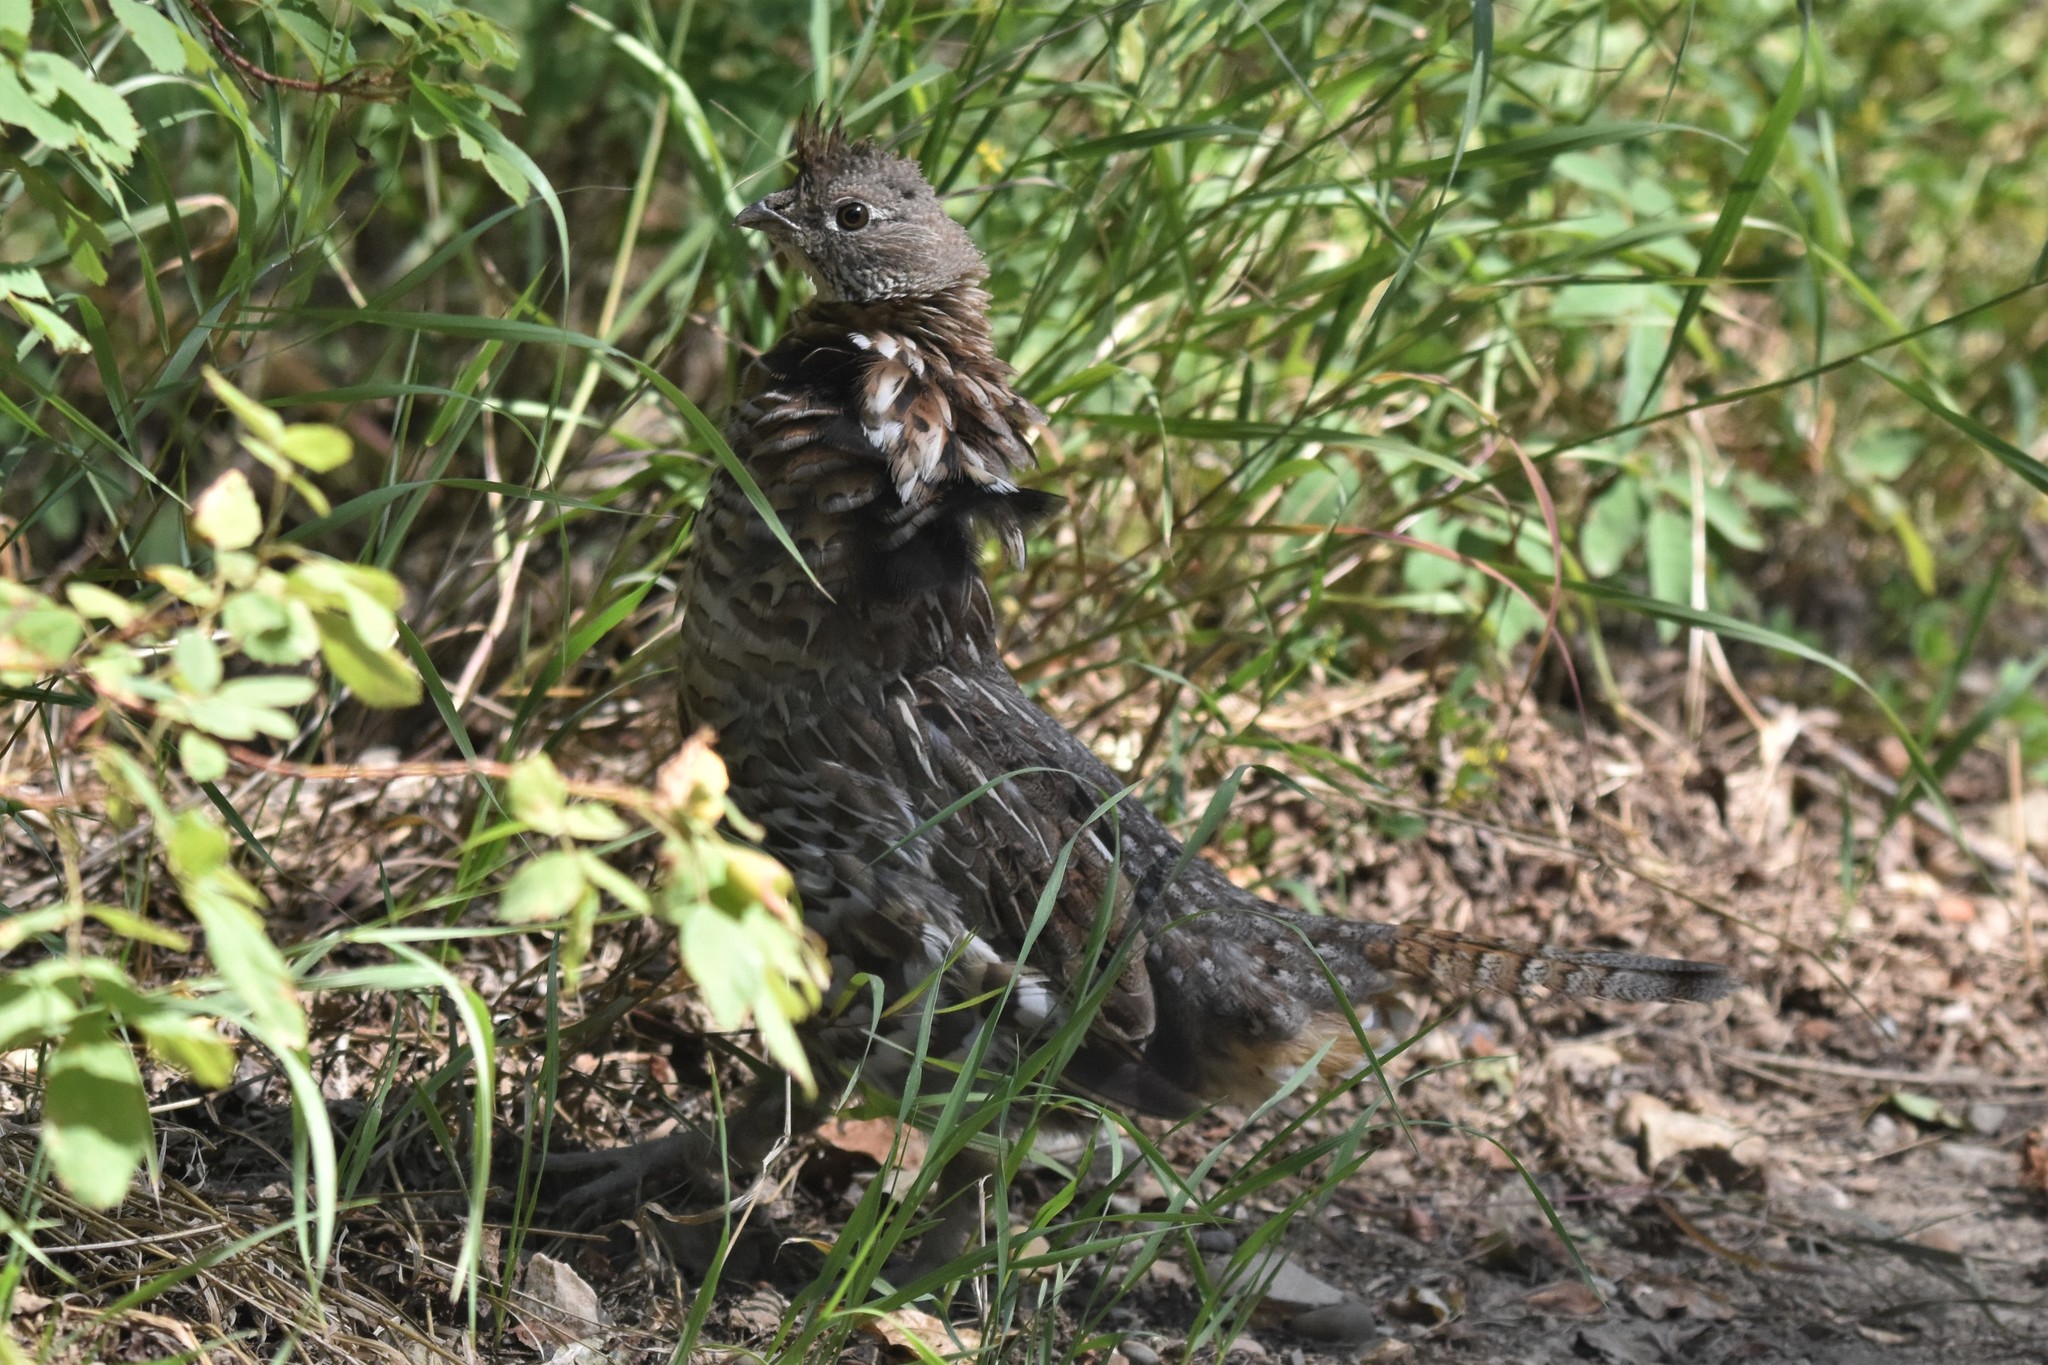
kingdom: Animalia
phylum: Chordata
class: Aves
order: Galliformes
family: Phasianidae
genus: Bonasa
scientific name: Bonasa umbellus
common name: Ruffed grouse
